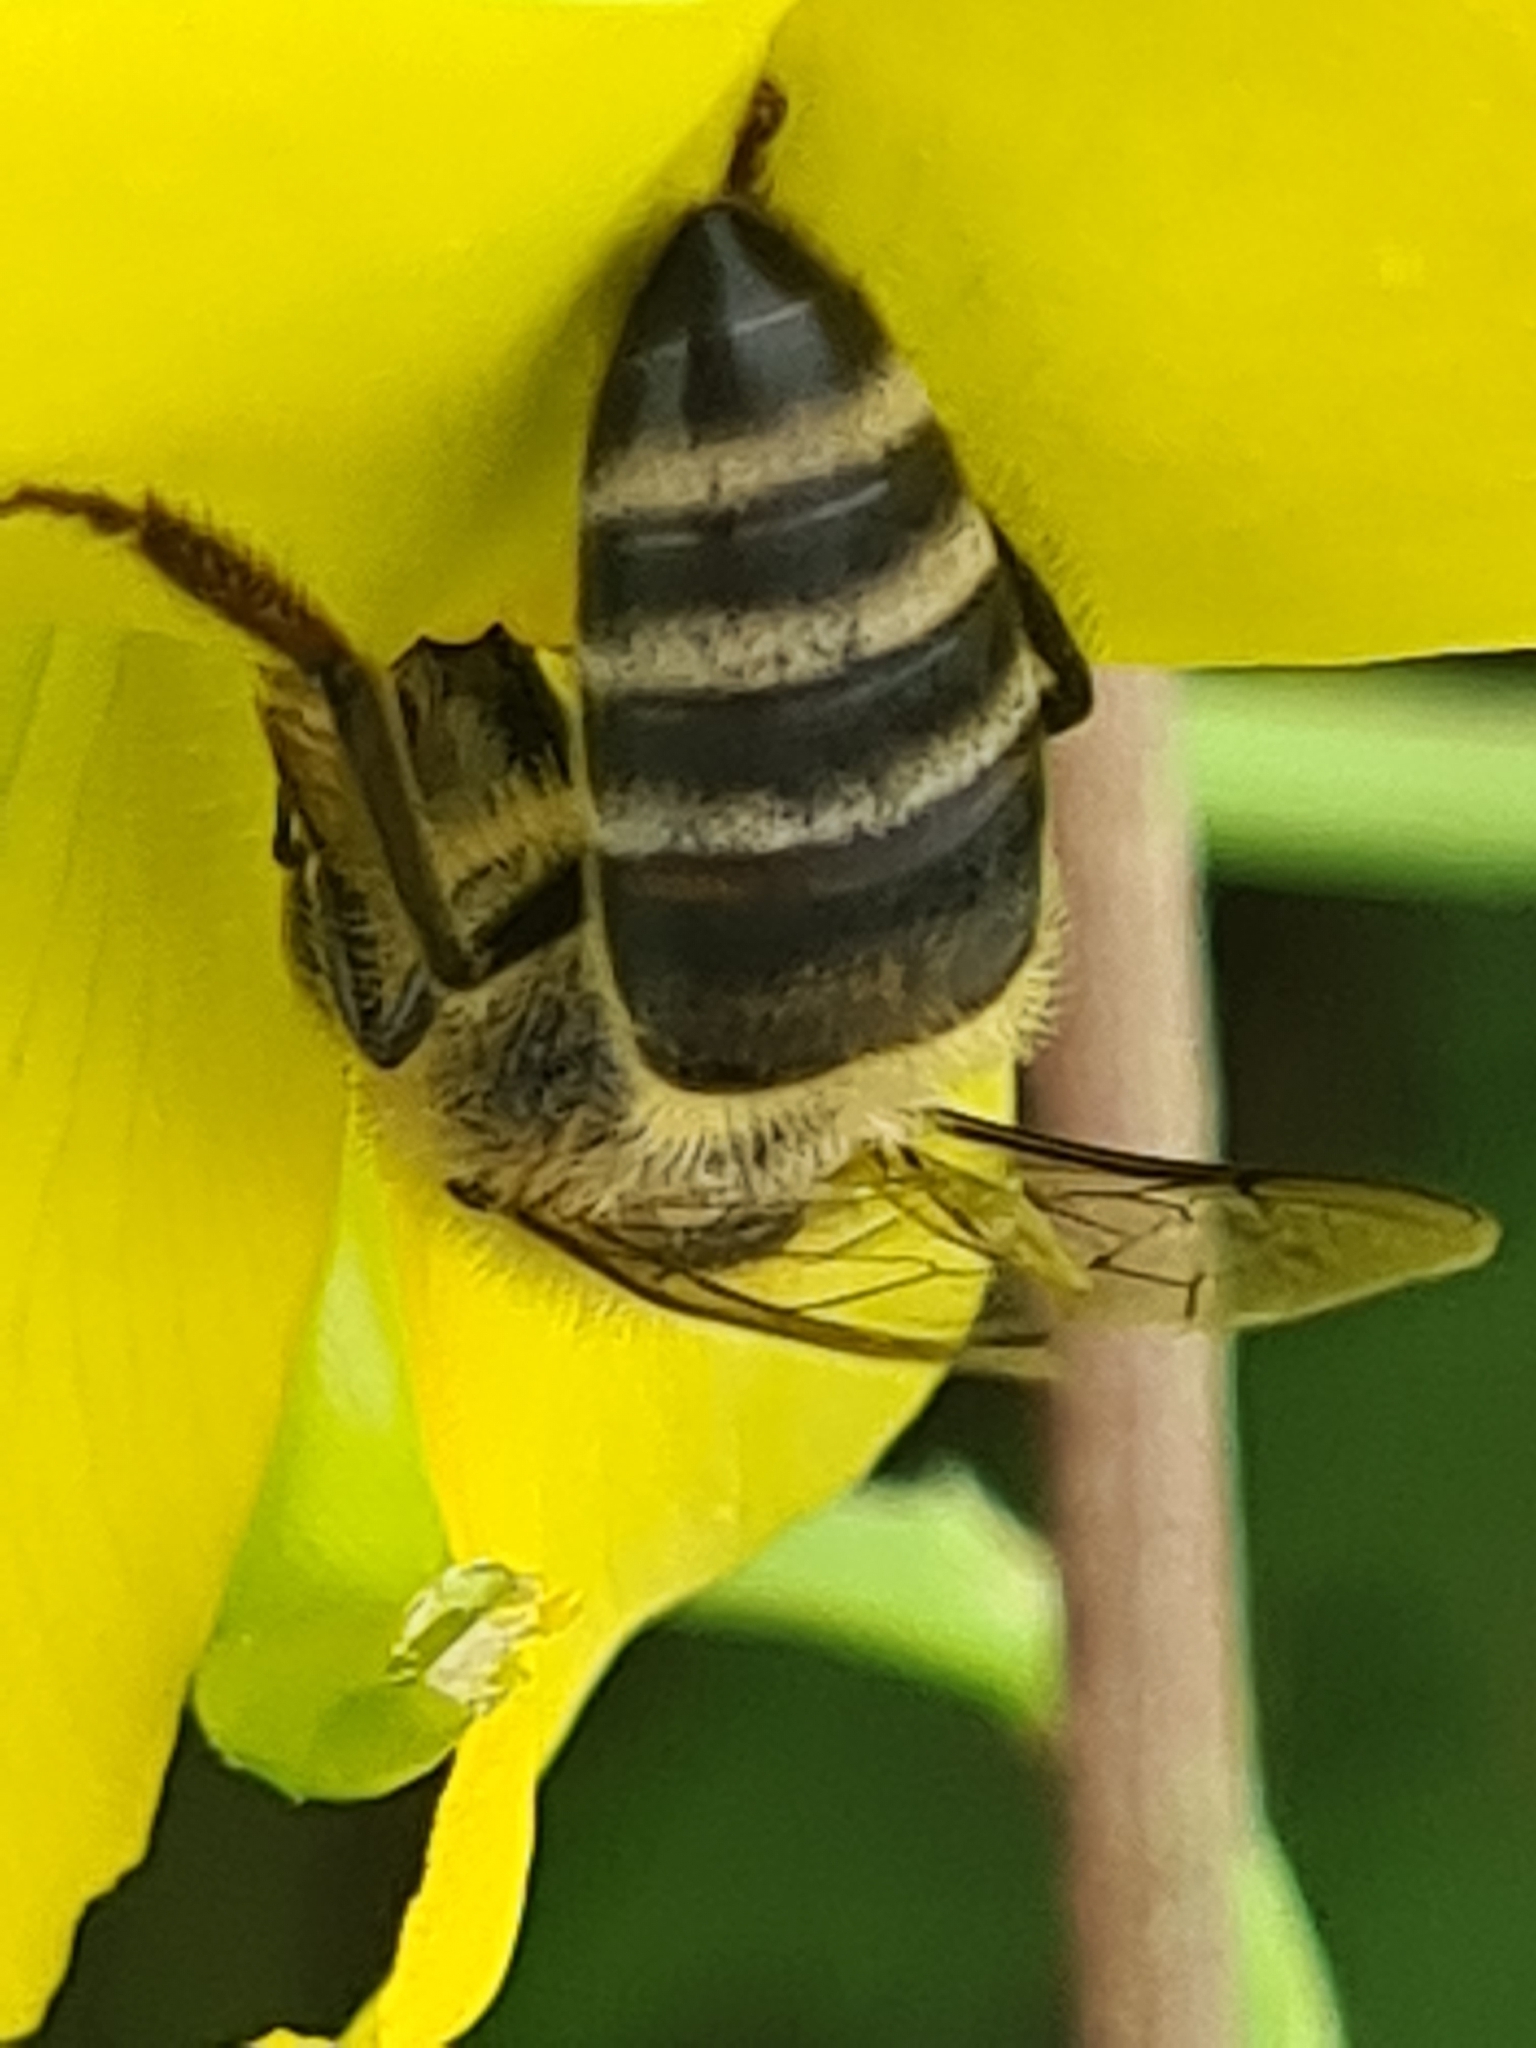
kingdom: Animalia
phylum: Arthropoda
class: Insecta
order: Hymenoptera
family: Apidae
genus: Apis
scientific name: Apis mellifera
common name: Honey bee
